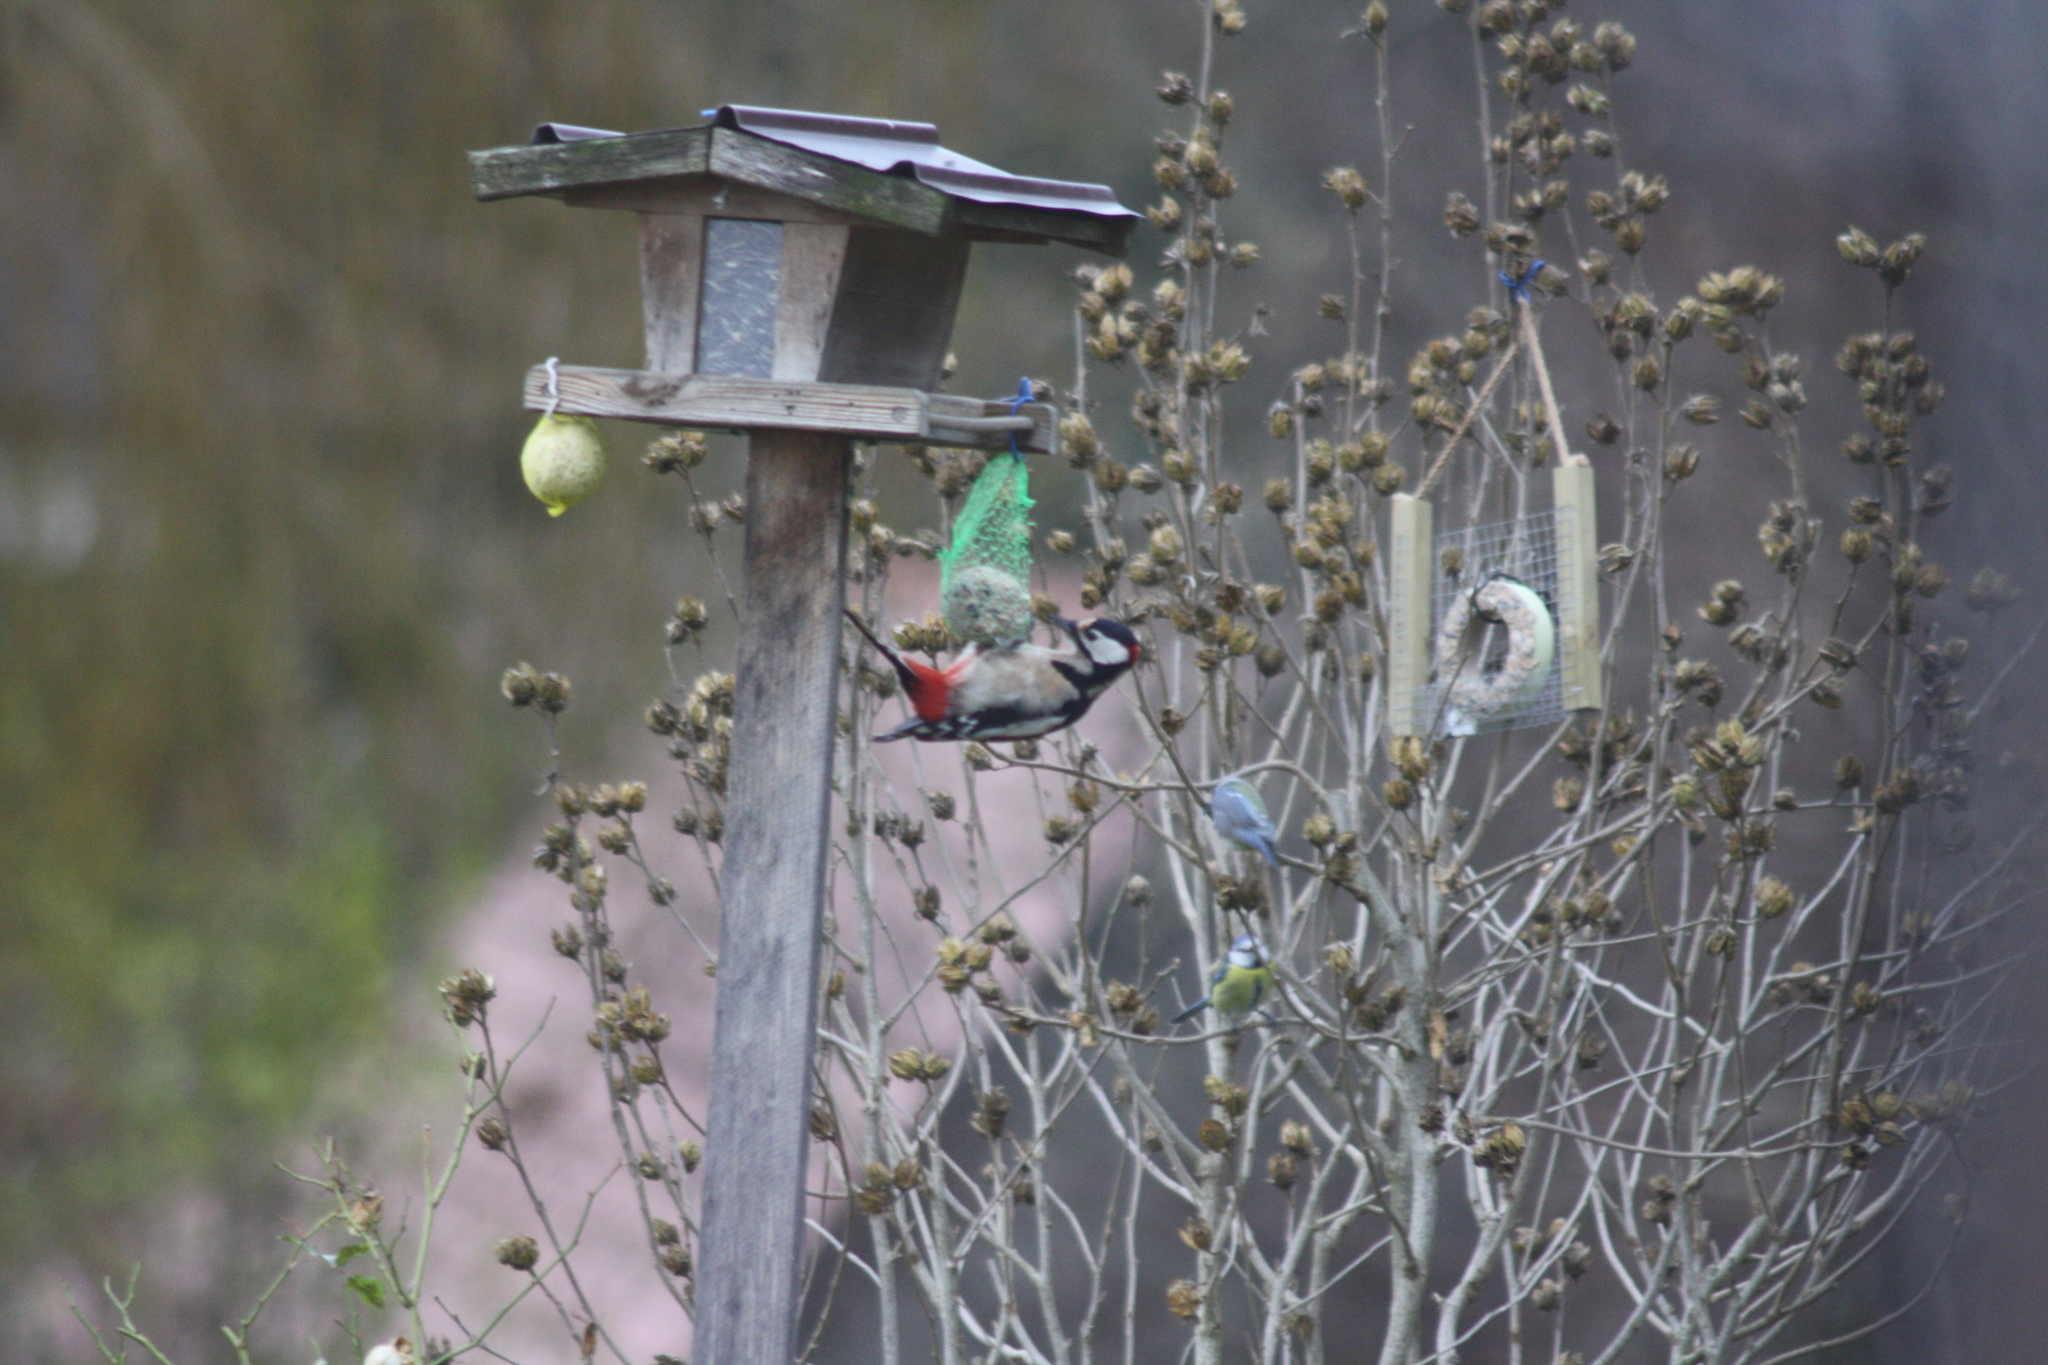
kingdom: Animalia
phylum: Chordata
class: Aves
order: Piciformes
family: Picidae
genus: Dendrocopos
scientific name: Dendrocopos major
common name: Great spotted woodpecker
